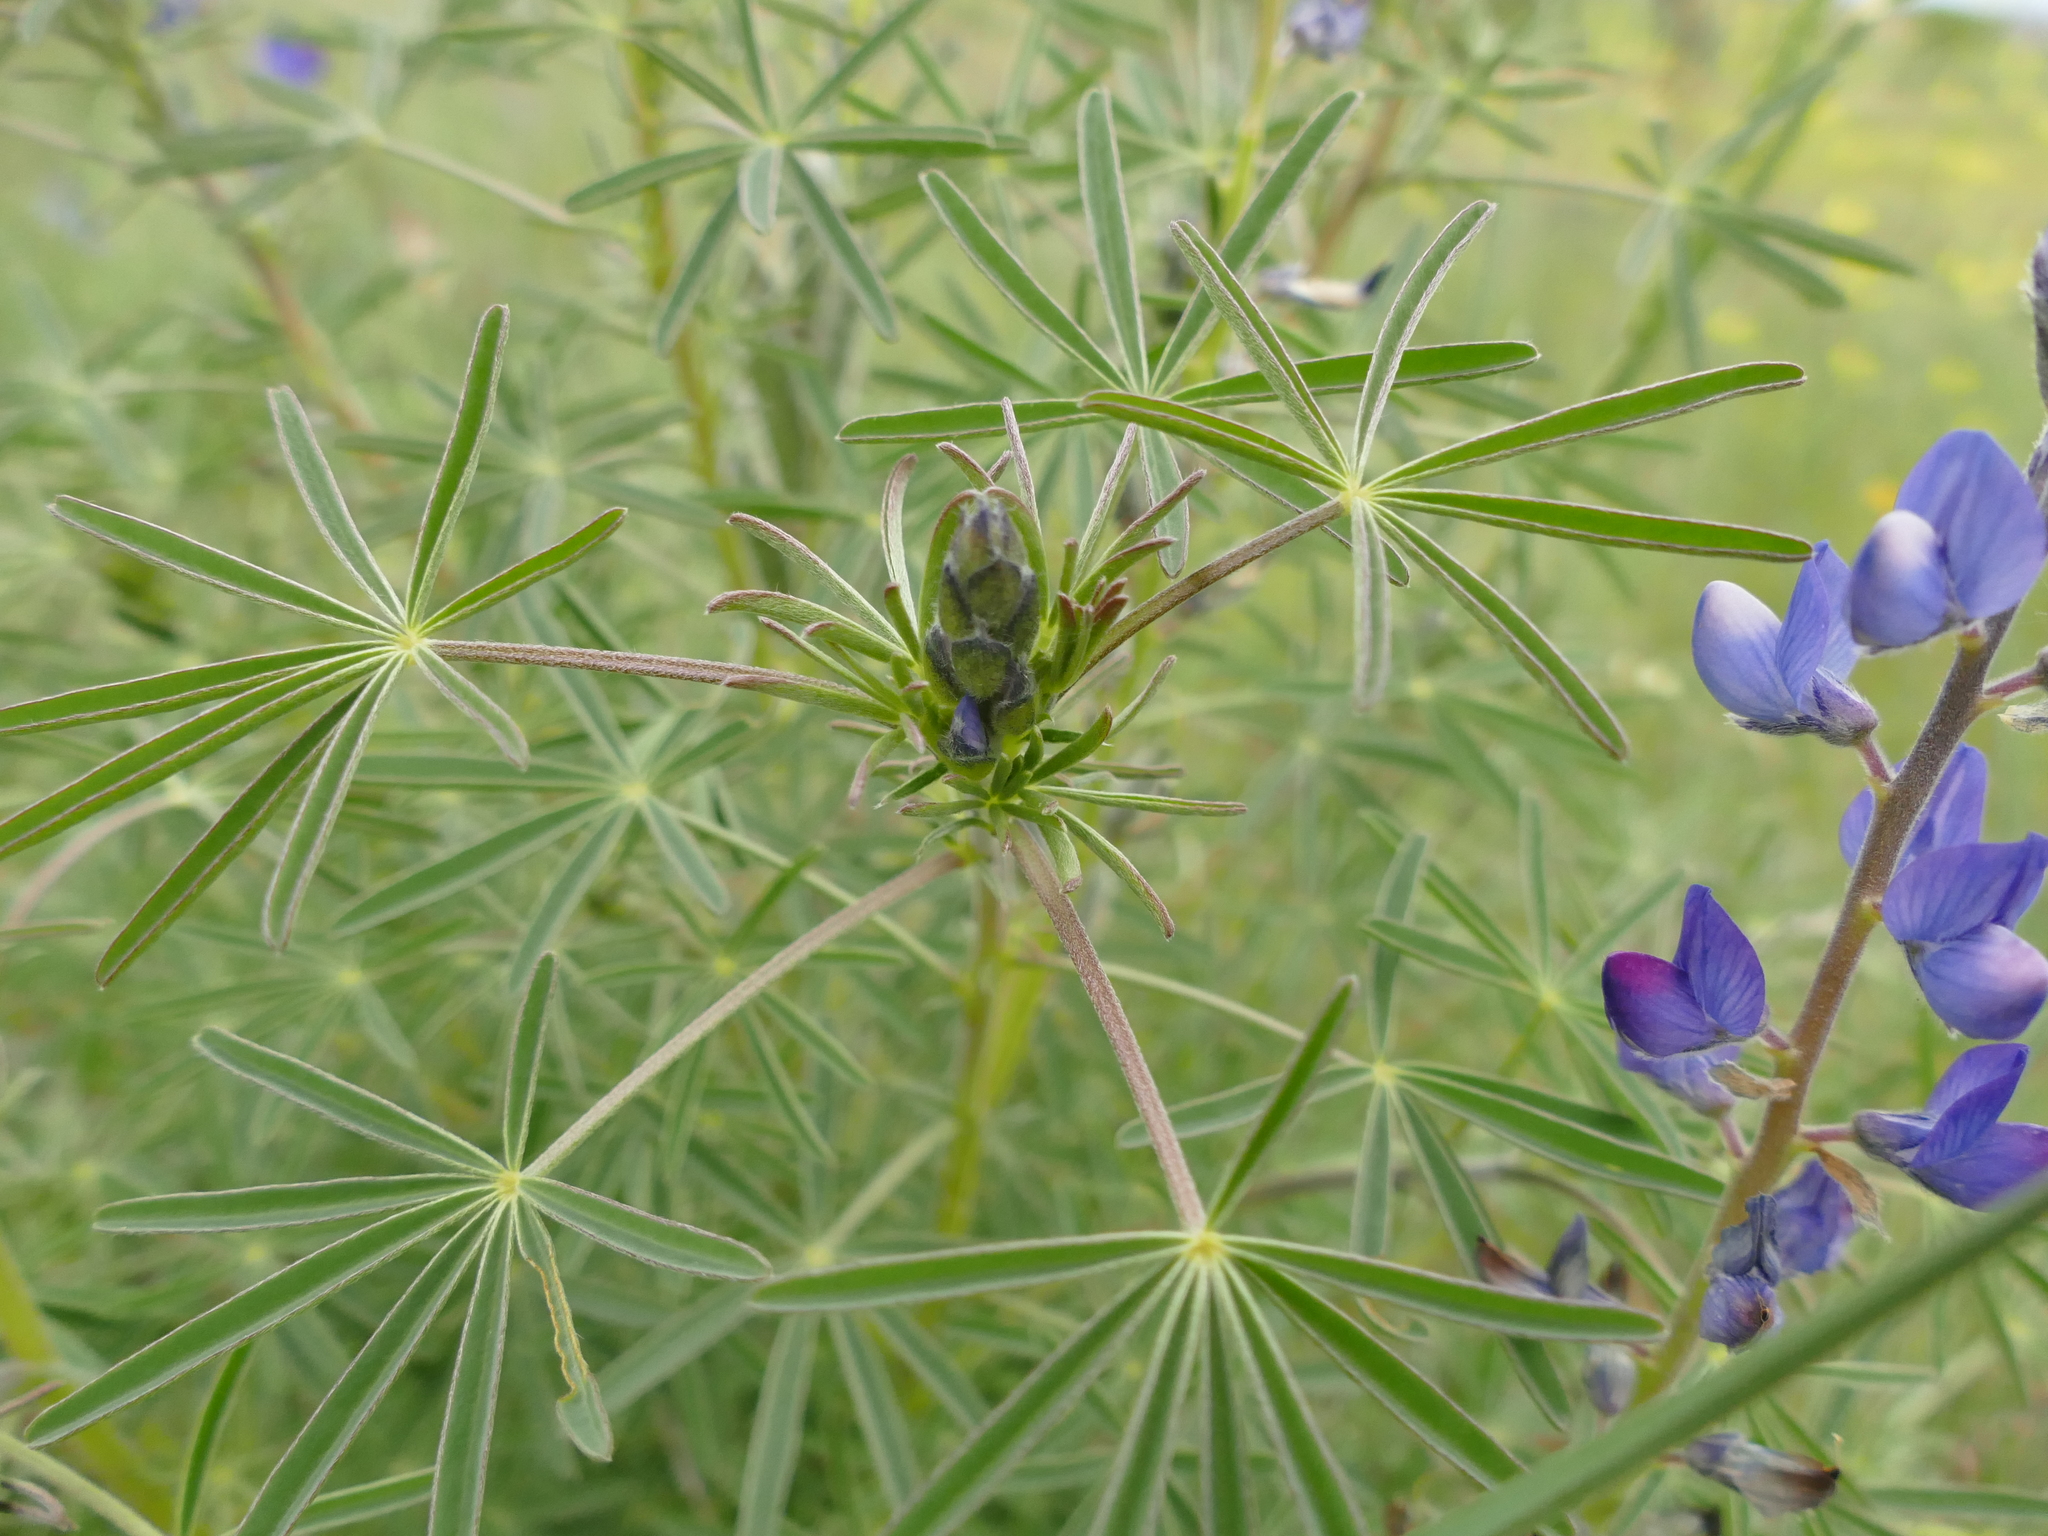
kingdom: Plantae
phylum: Tracheophyta
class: Magnoliopsida
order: Fabales
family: Fabaceae
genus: Lupinus
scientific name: Lupinus angustifolius
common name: Narrow-leaved lupin
